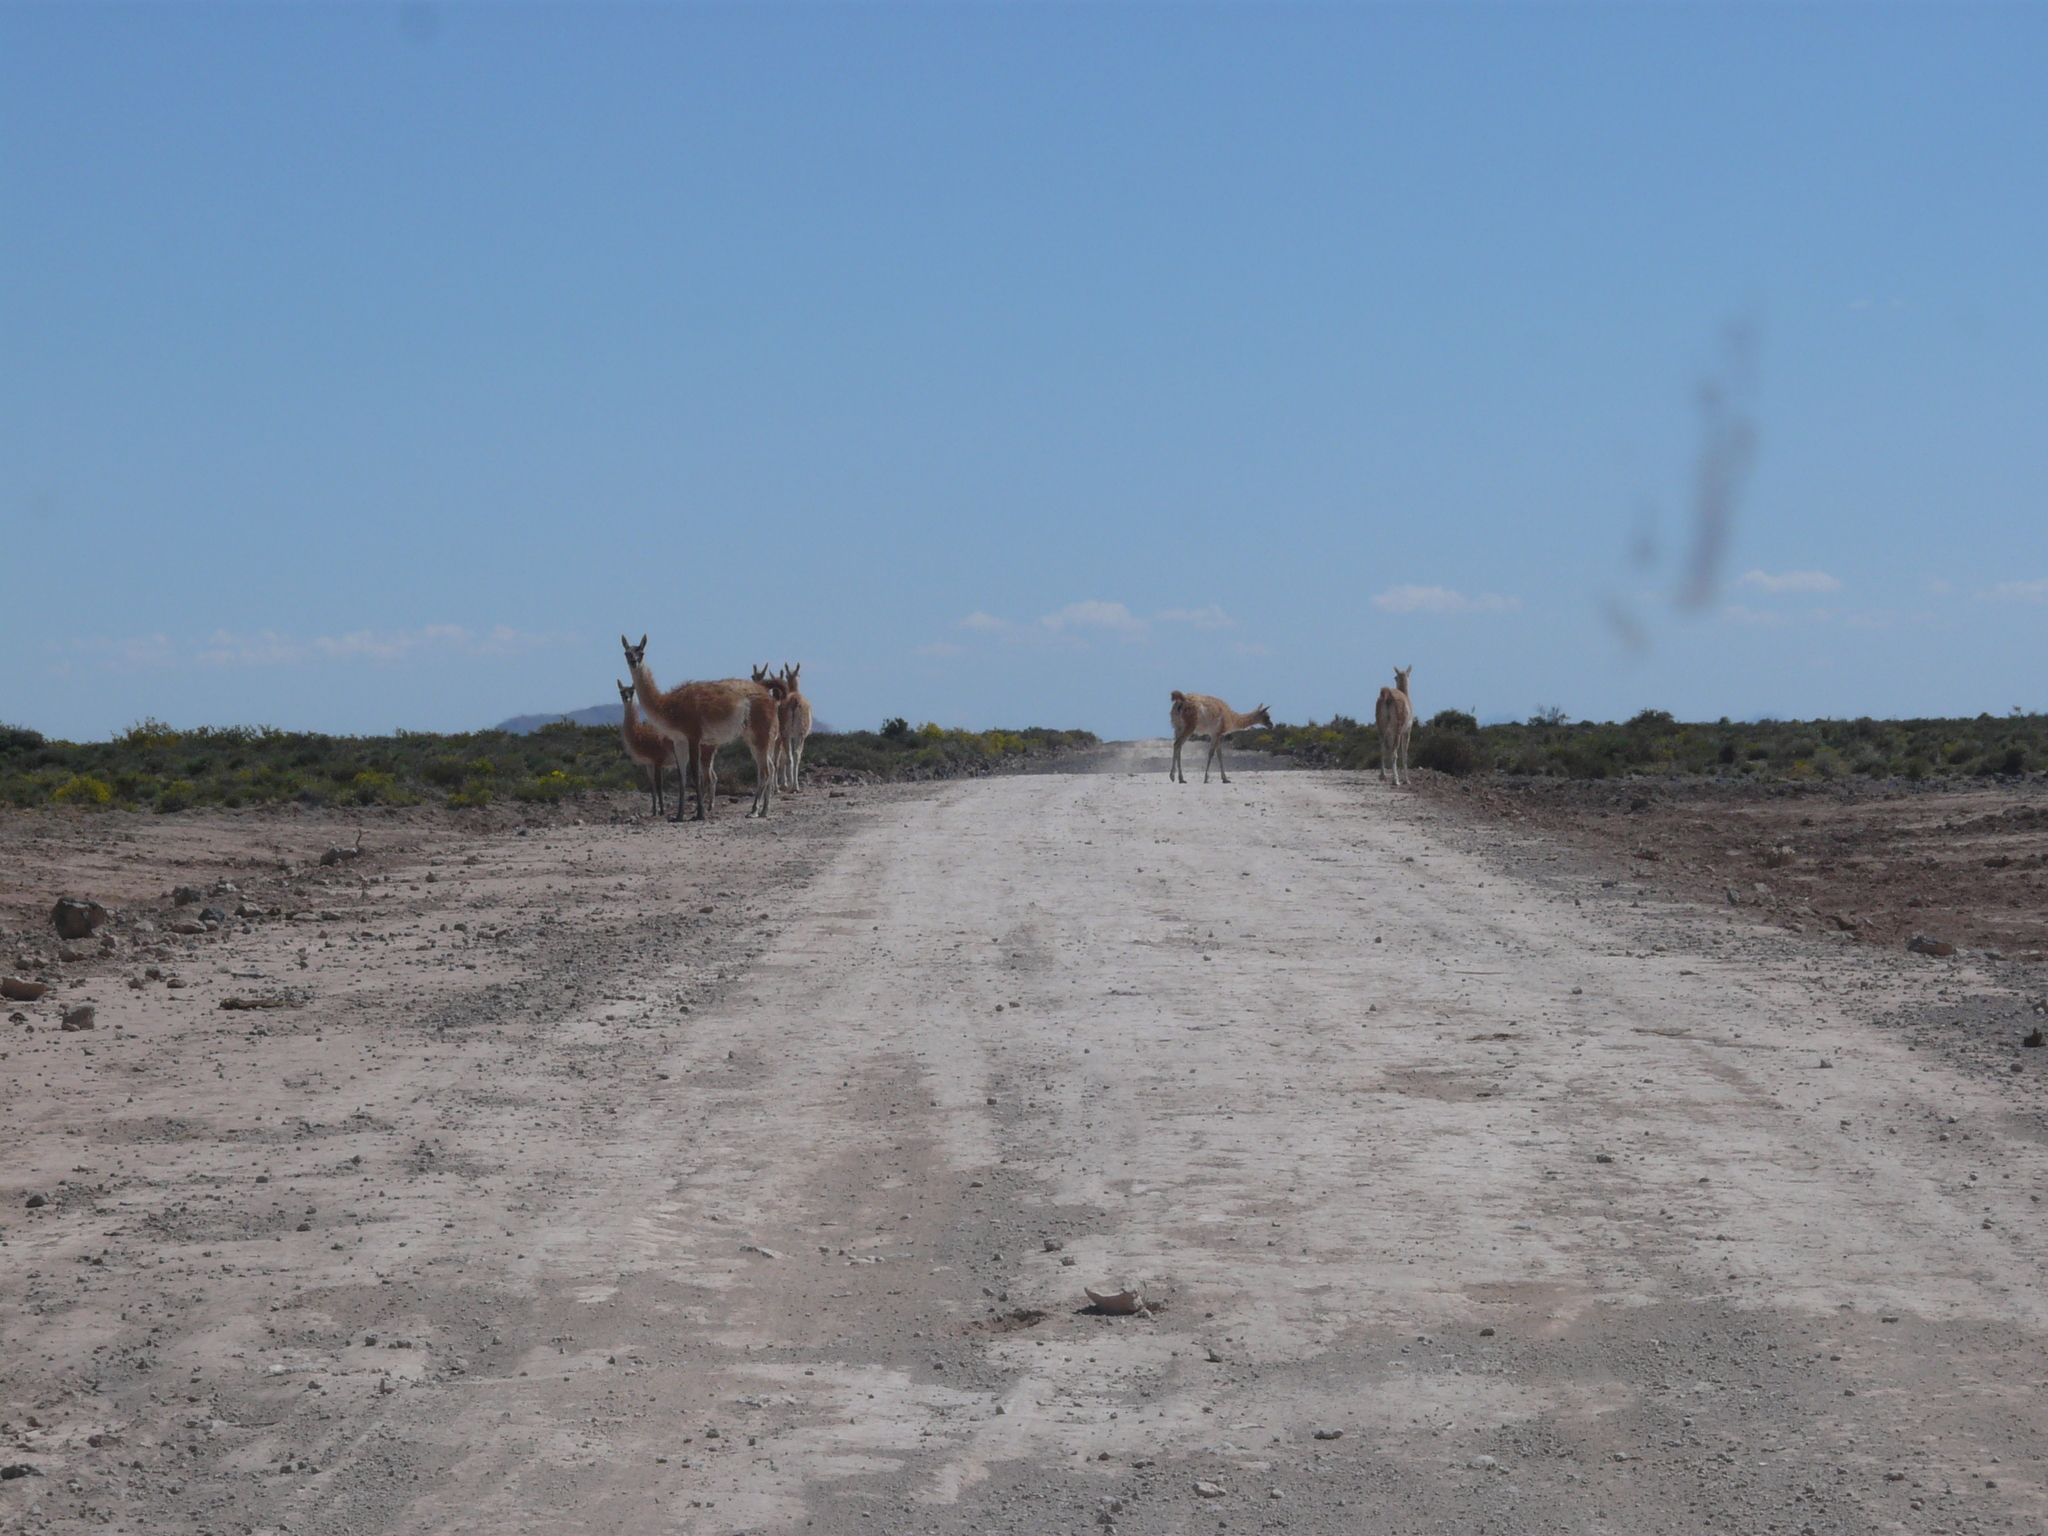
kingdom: Animalia
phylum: Chordata
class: Mammalia
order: Artiodactyla
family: Camelidae
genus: Lama
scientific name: Lama glama
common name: Llama
